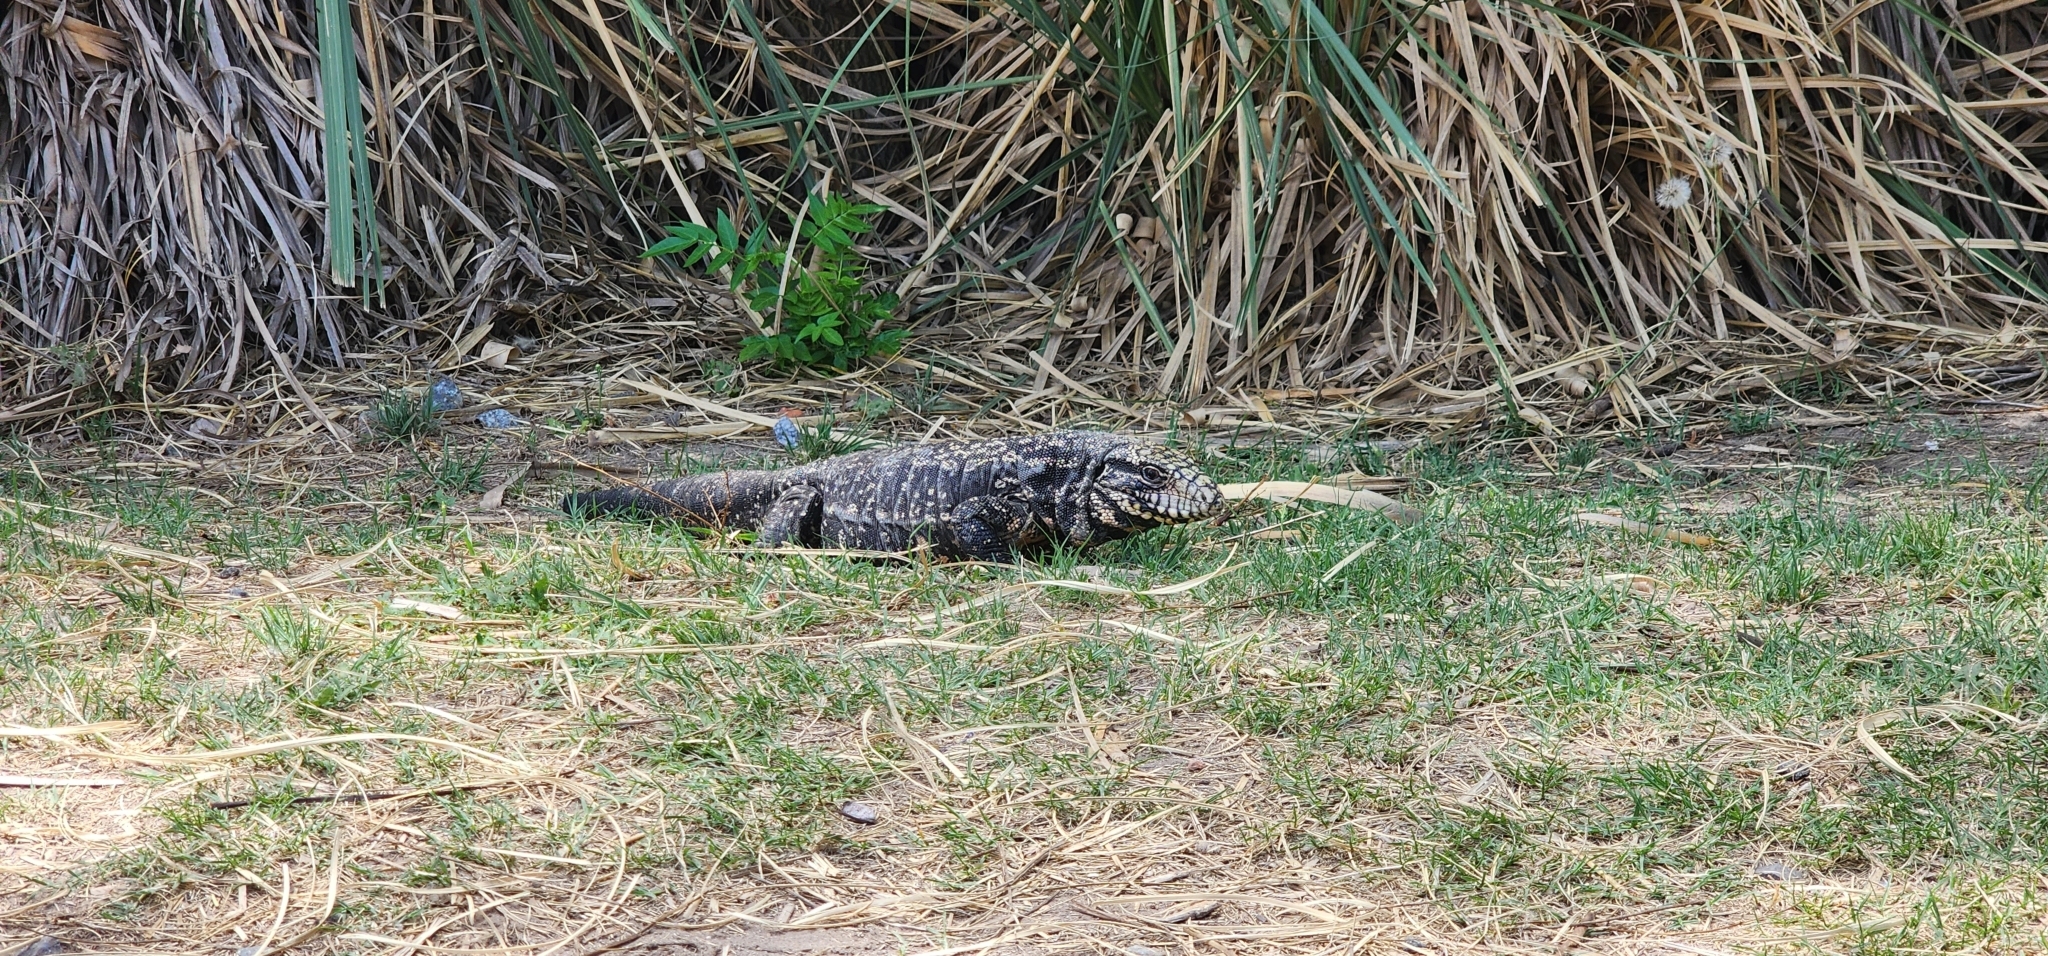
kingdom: Animalia
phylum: Chordata
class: Squamata
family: Teiidae
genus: Salvator
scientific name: Salvator merianae
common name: Argentine black and white tegu
